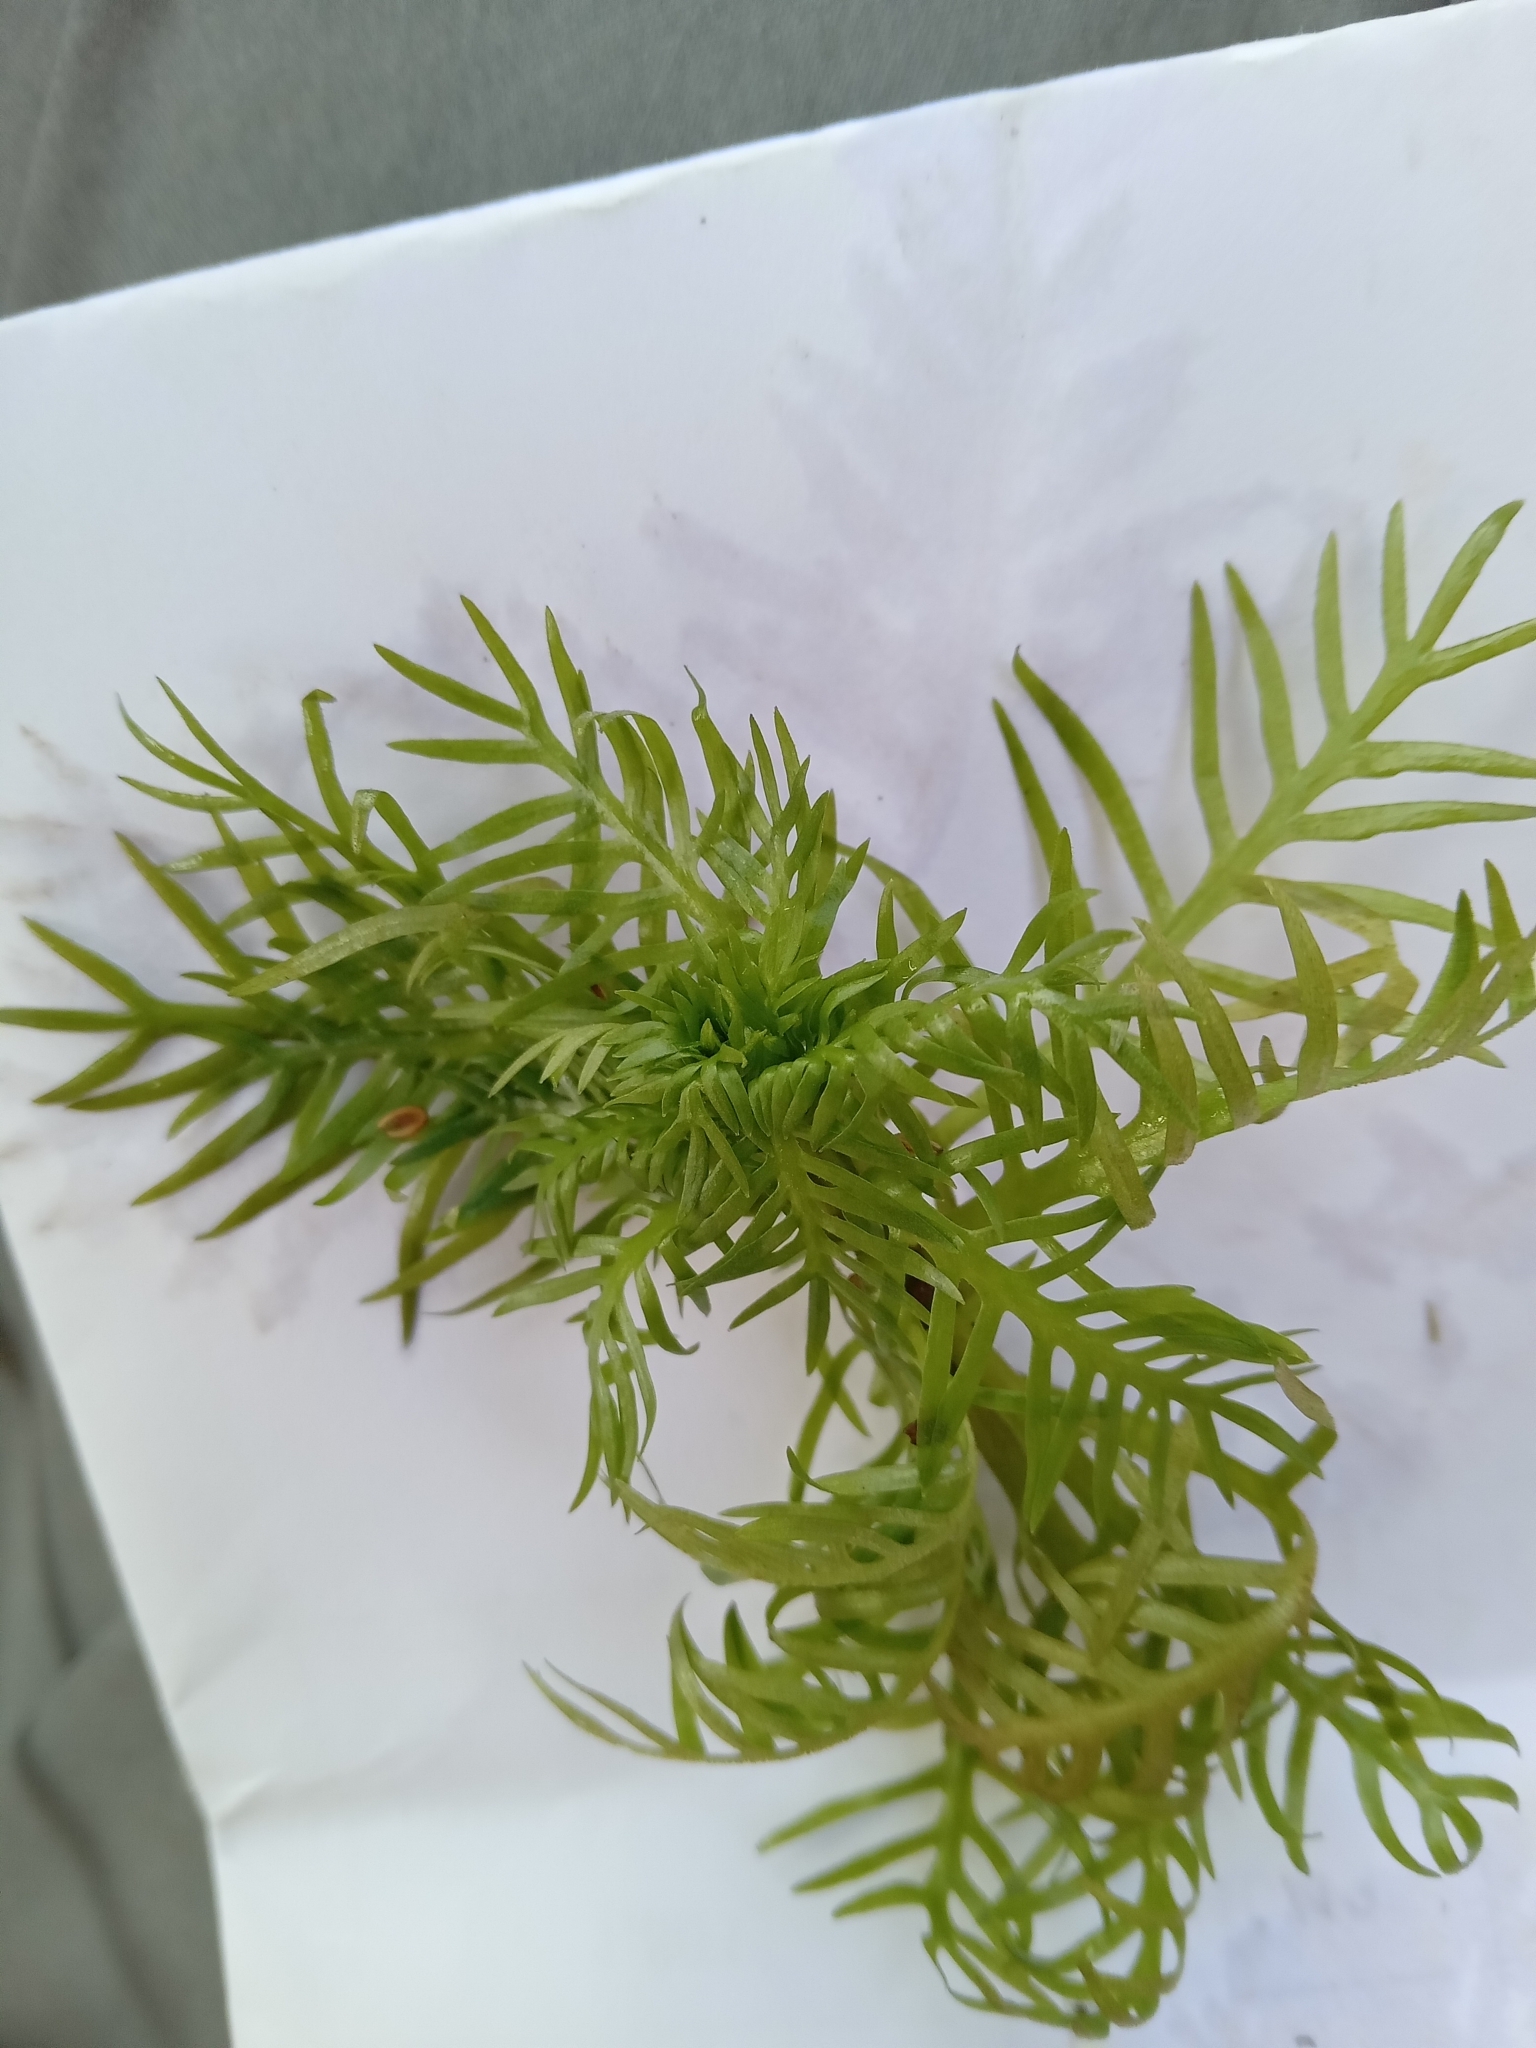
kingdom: Plantae
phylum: Tracheophyta
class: Magnoliopsida
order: Ericales
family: Primulaceae
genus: Hottonia
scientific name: Hottonia palustris
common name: Water-violet
